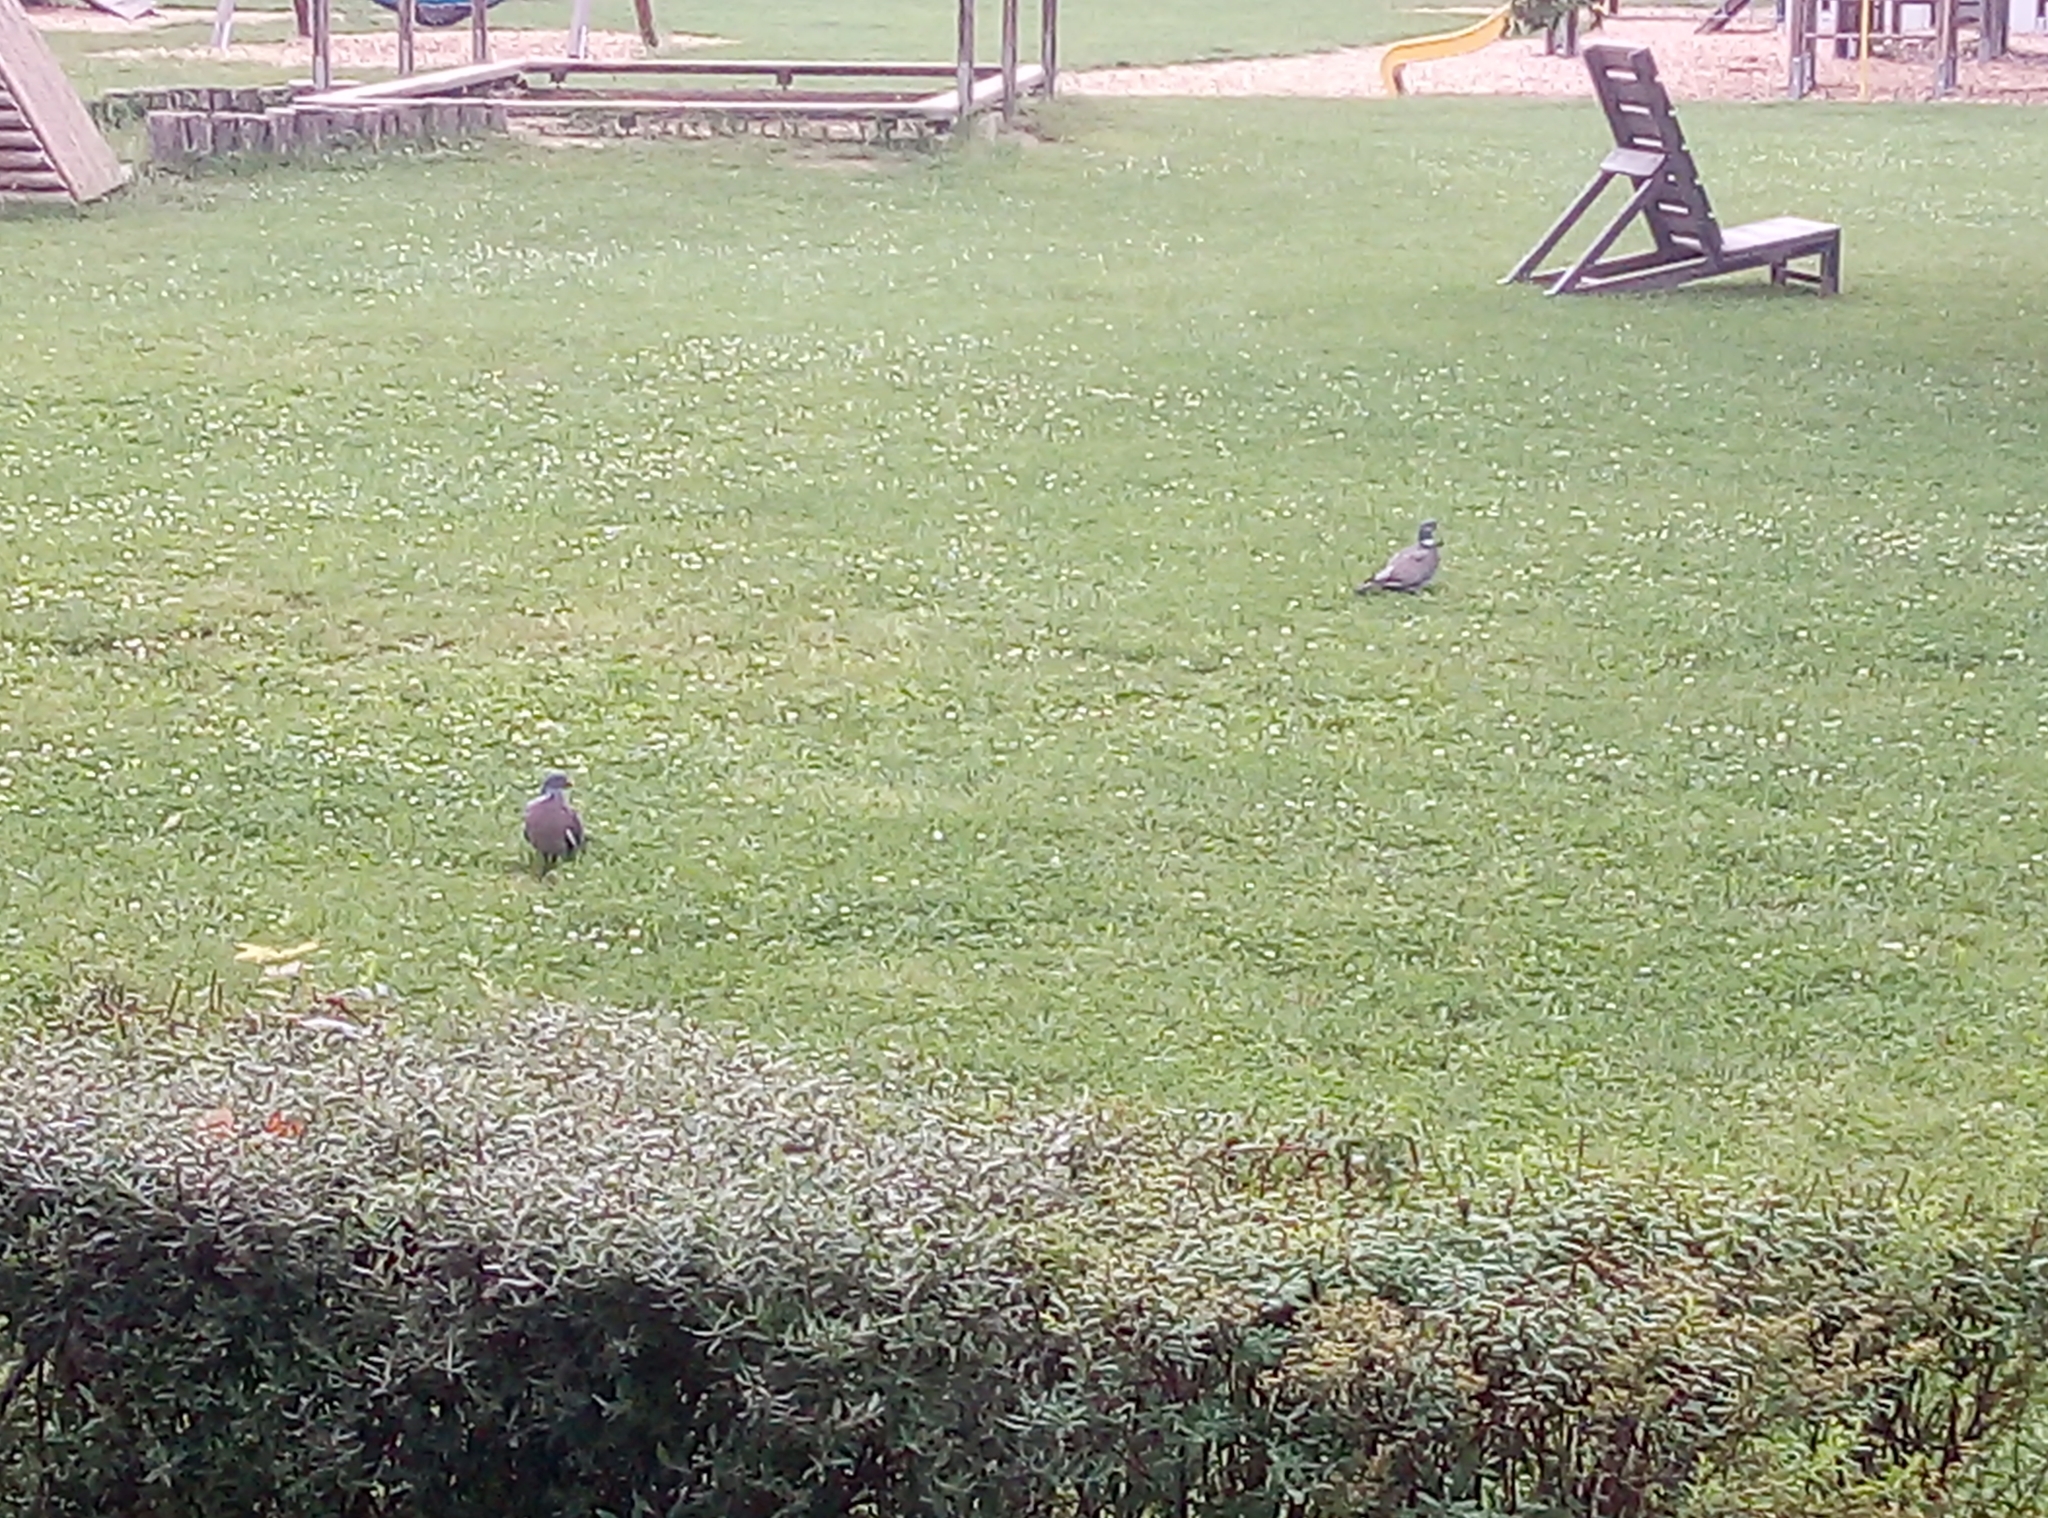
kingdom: Animalia
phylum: Chordata
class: Aves
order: Columbiformes
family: Columbidae
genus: Columba
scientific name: Columba palumbus
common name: Common wood pigeon
